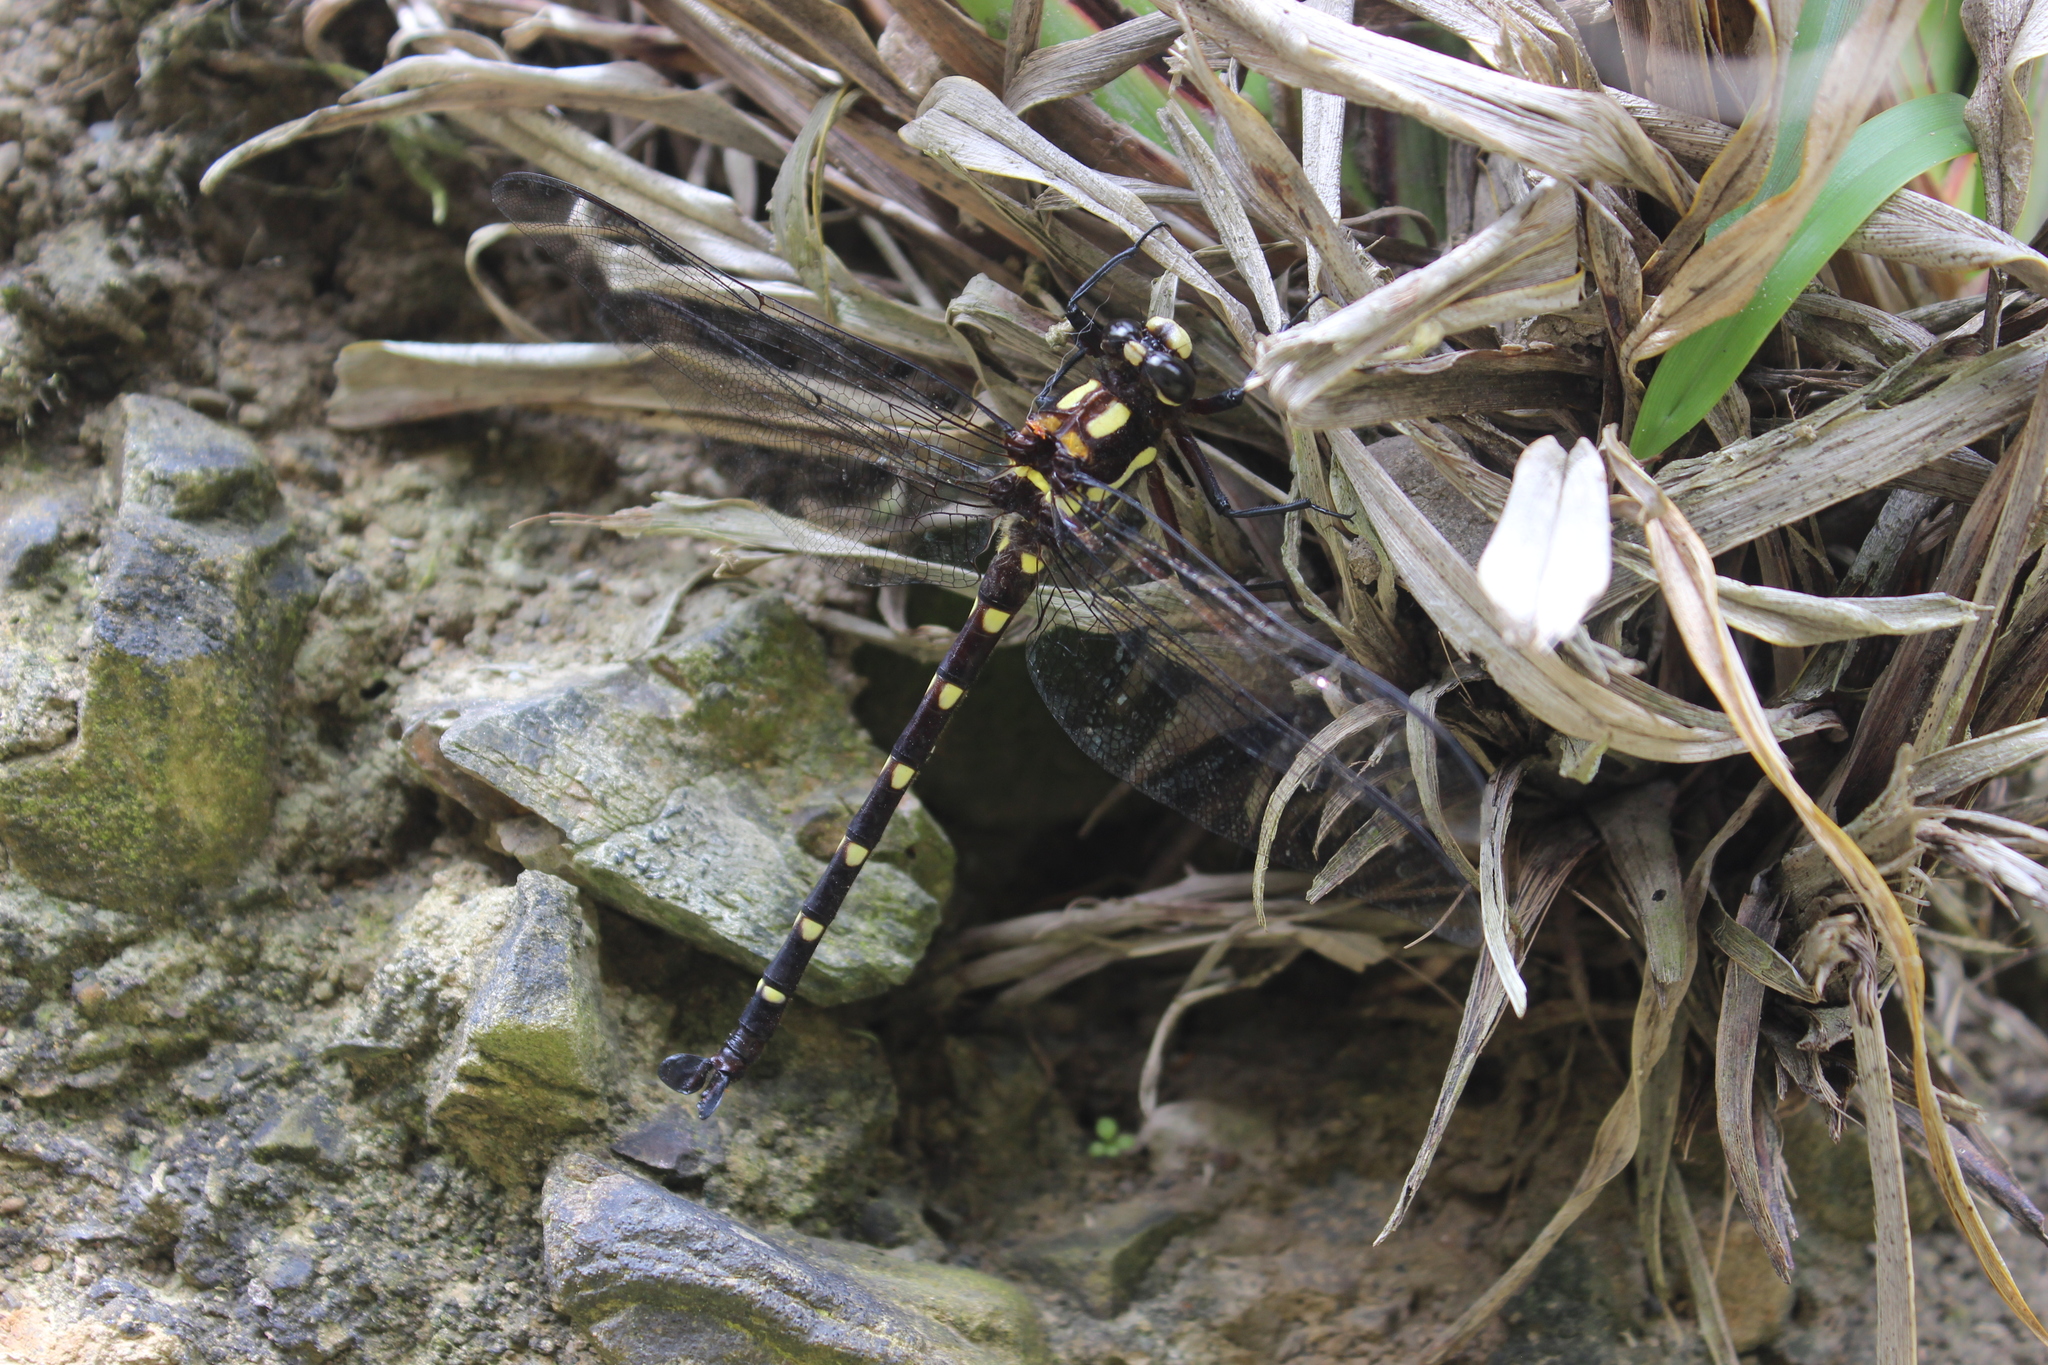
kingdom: Animalia
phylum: Arthropoda
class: Insecta
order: Odonata
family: Petaluridae
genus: Uropetala
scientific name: Uropetala carovei
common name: Bush giant dragonfly
